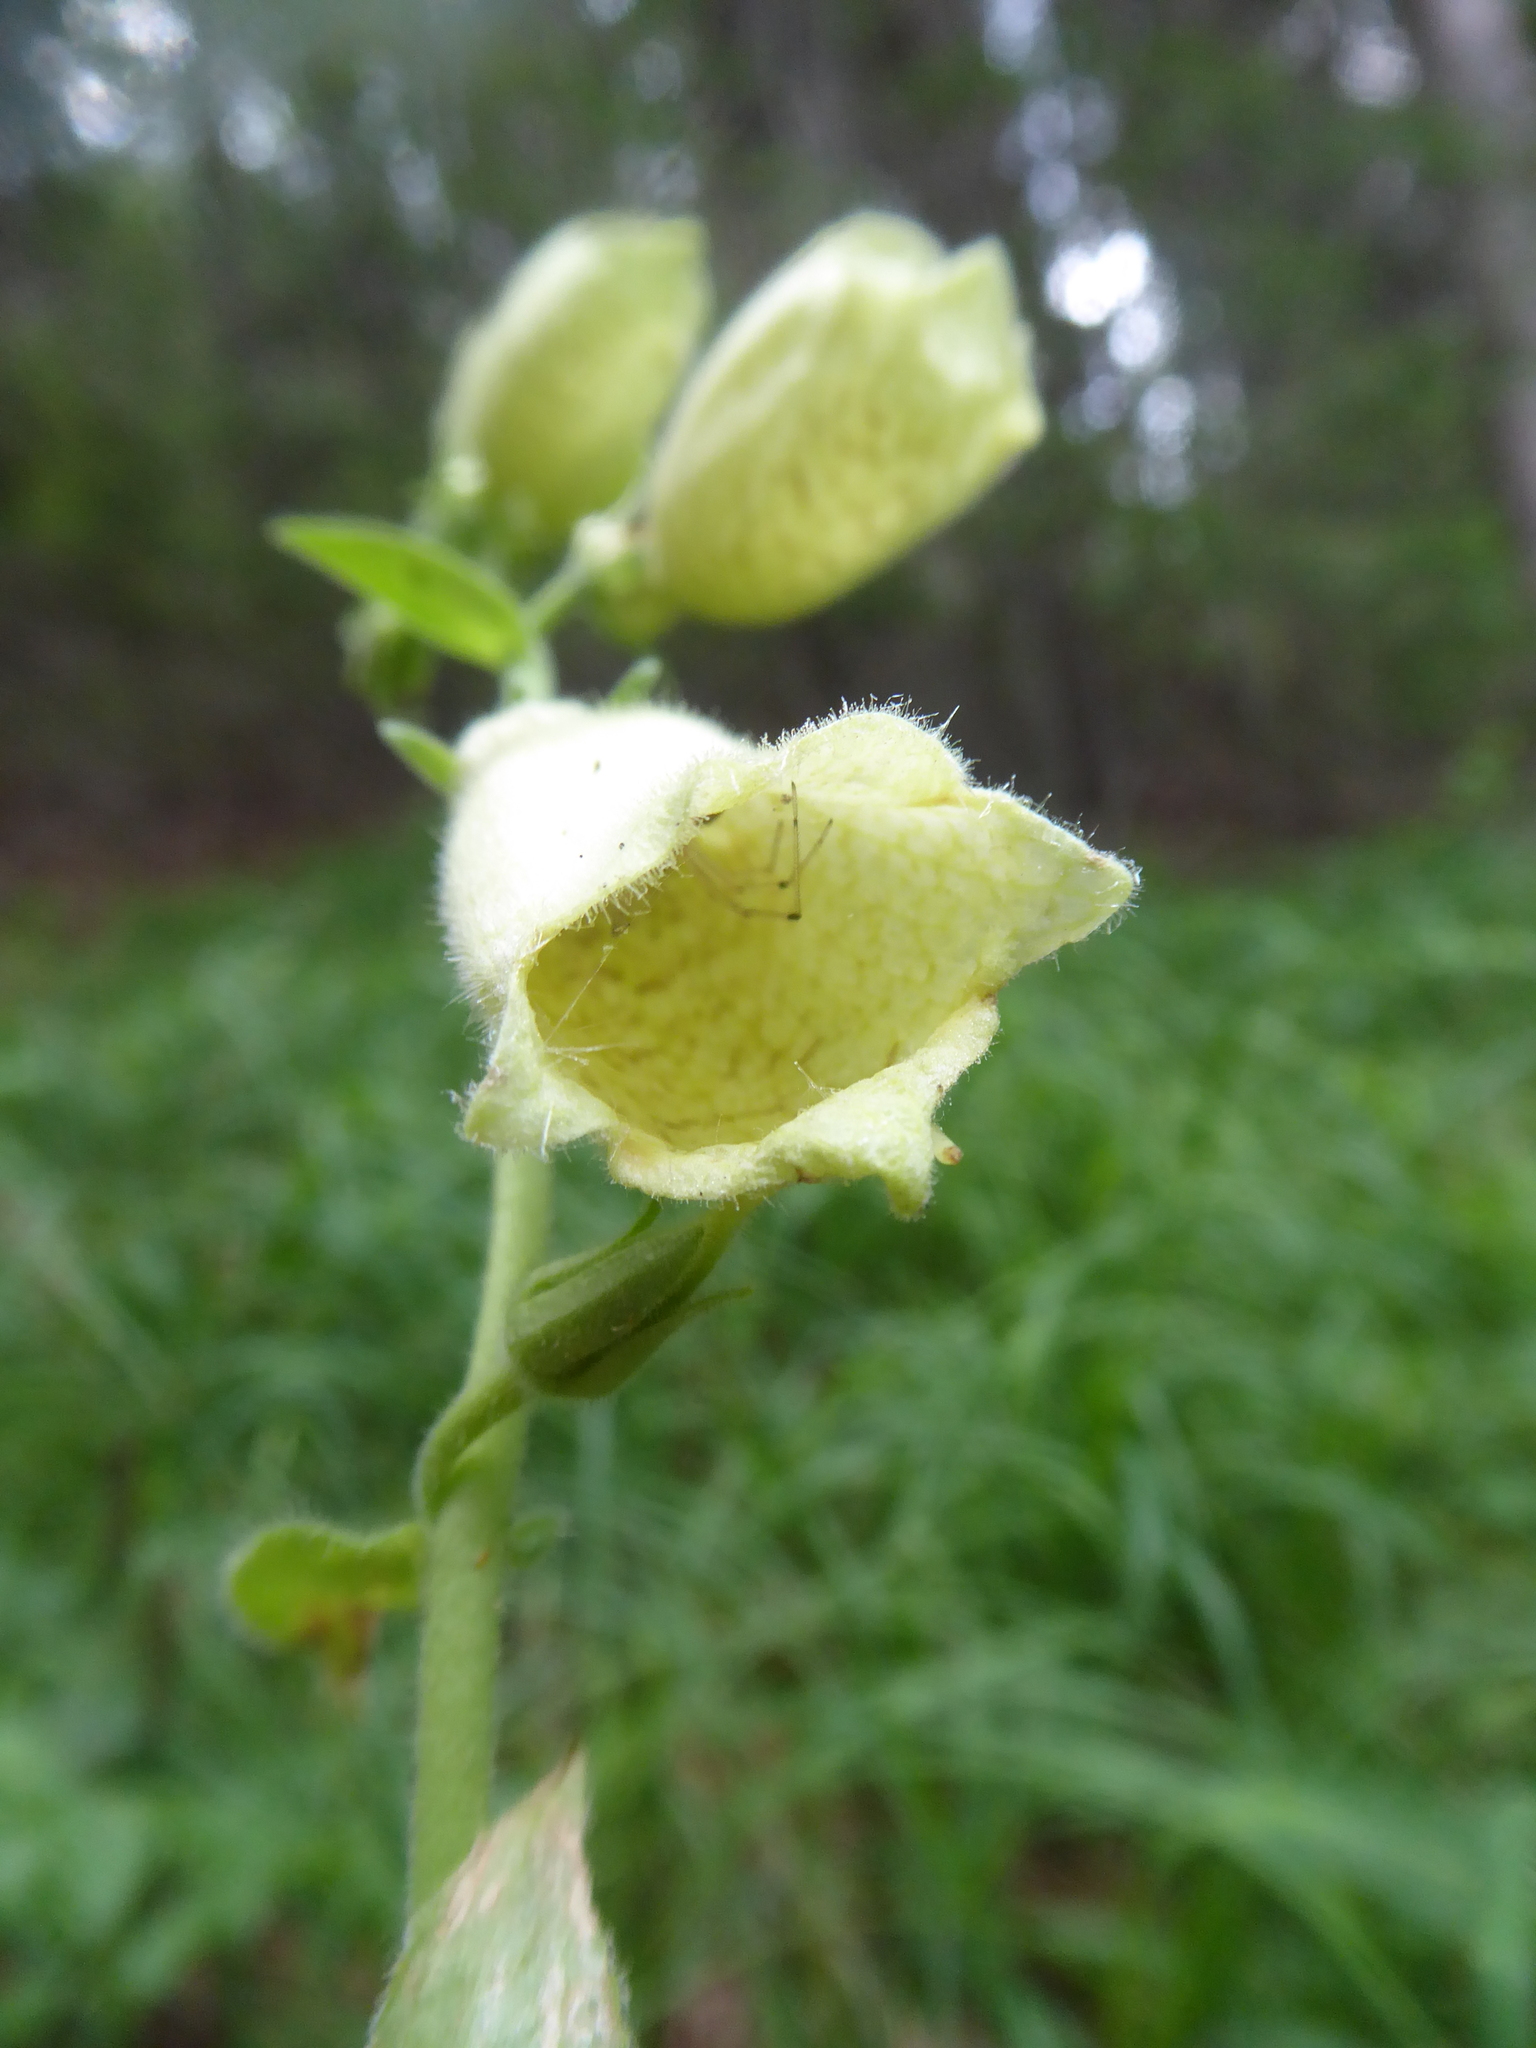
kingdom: Plantae
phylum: Tracheophyta
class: Magnoliopsida
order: Lamiales
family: Plantaginaceae
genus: Digitalis
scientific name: Digitalis grandiflora
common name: Yellow foxglove
